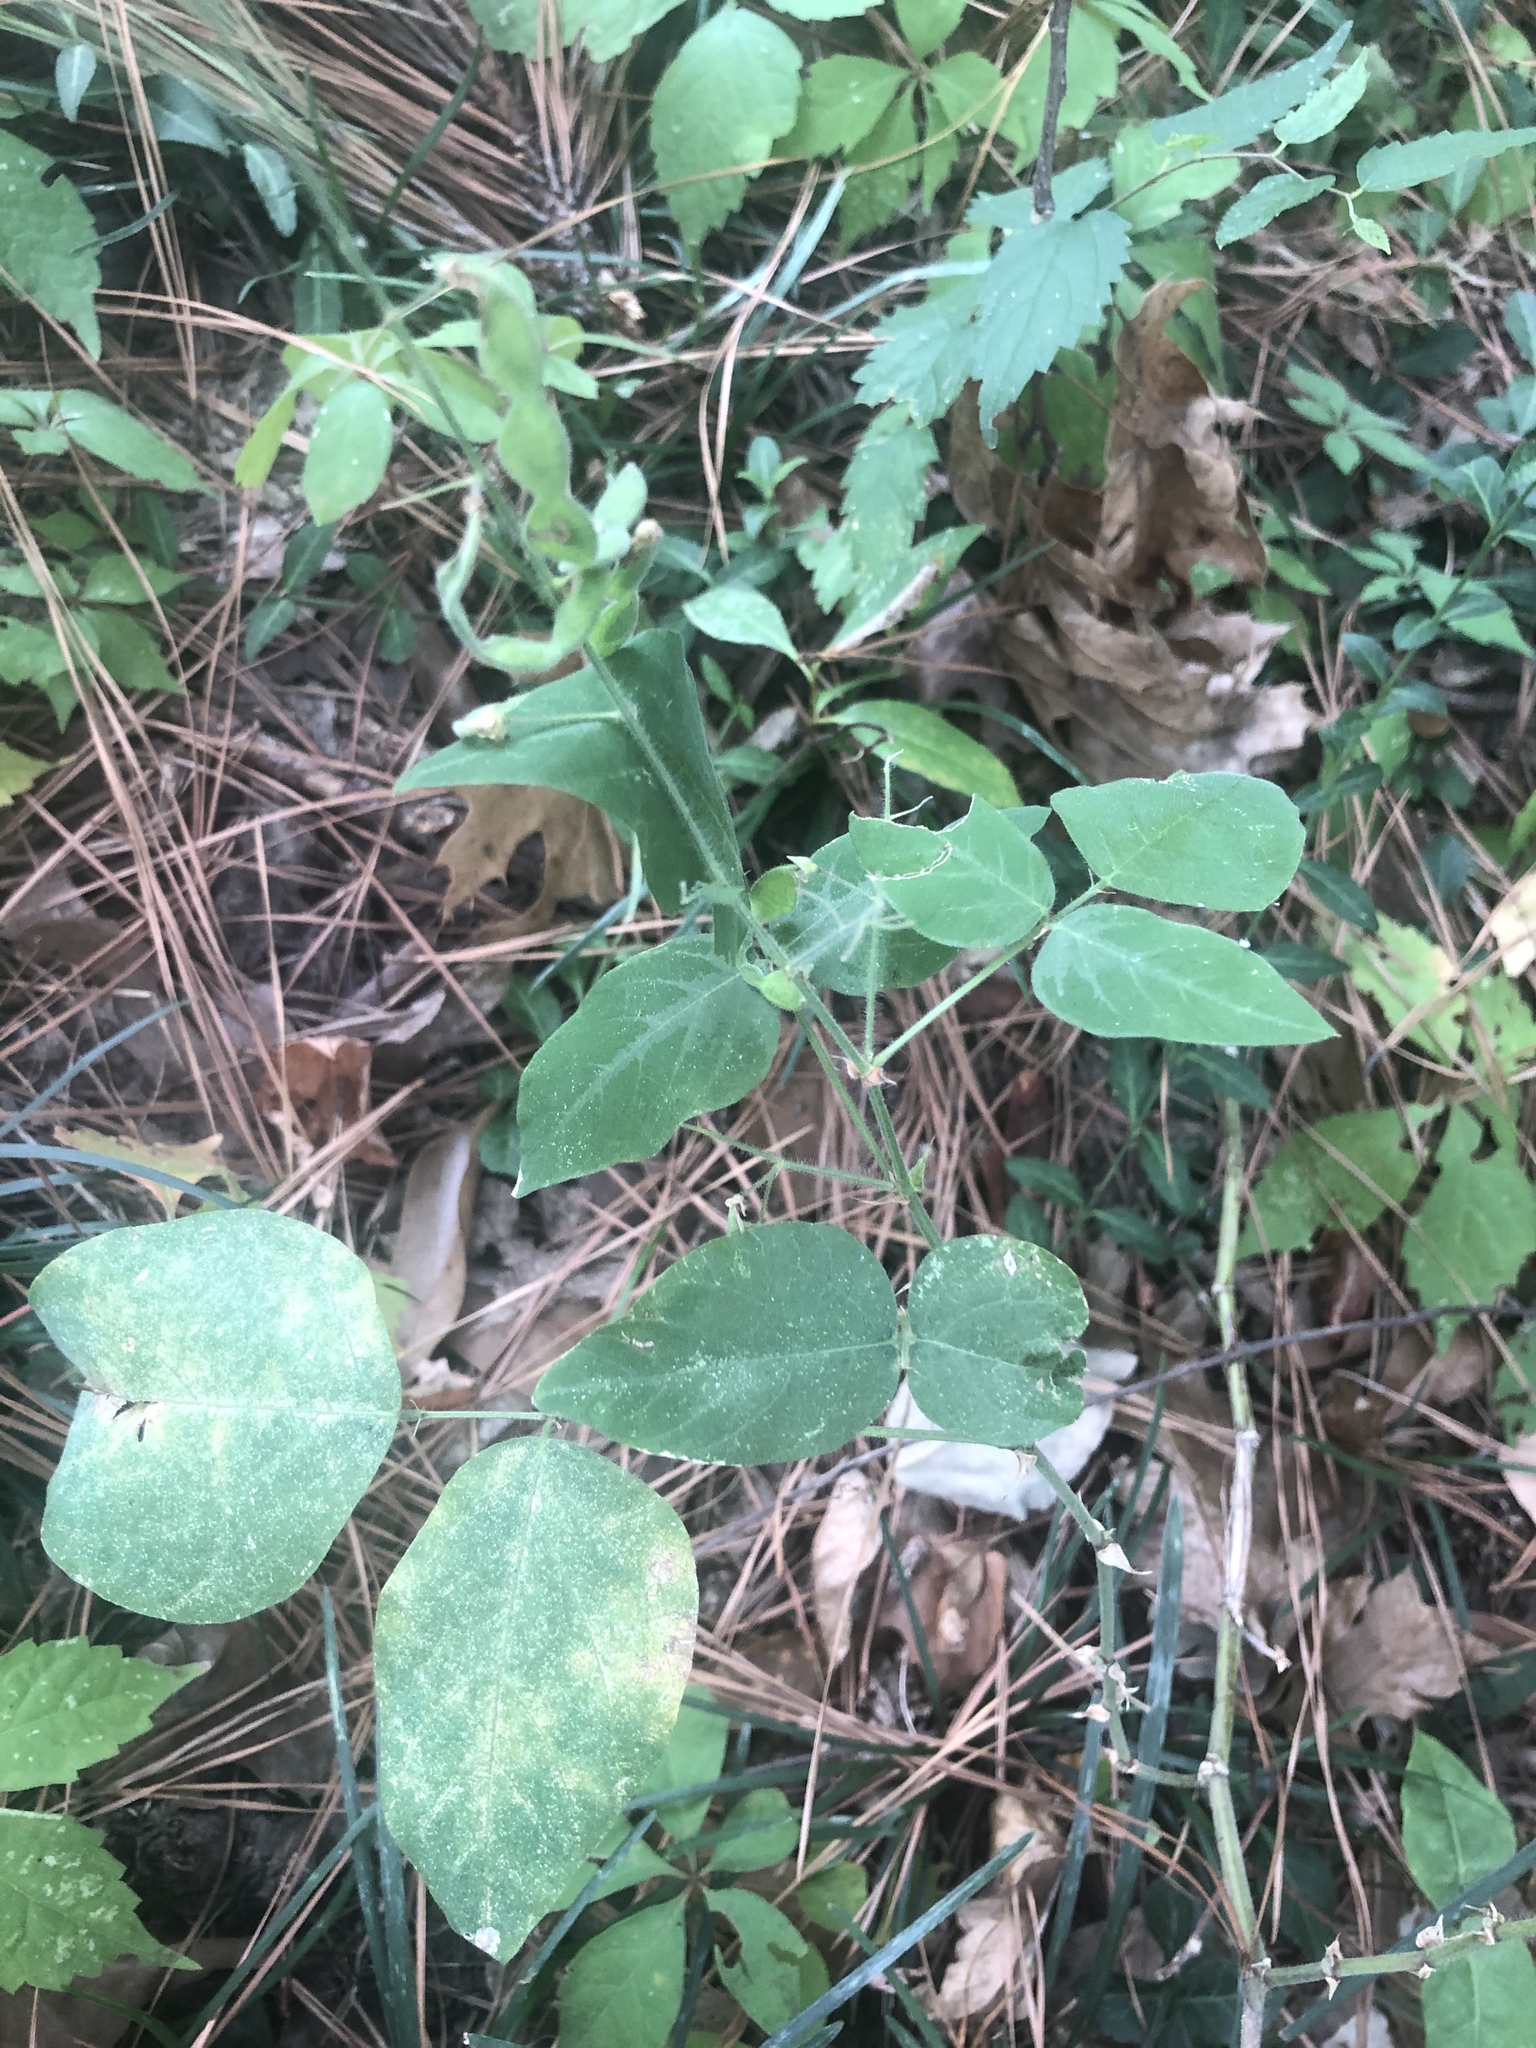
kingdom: Plantae
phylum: Tracheophyta
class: Magnoliopsida
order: Fabales
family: Fabaceae
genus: Desmodium
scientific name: Desmodium canescens
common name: Hoary tick-clover
